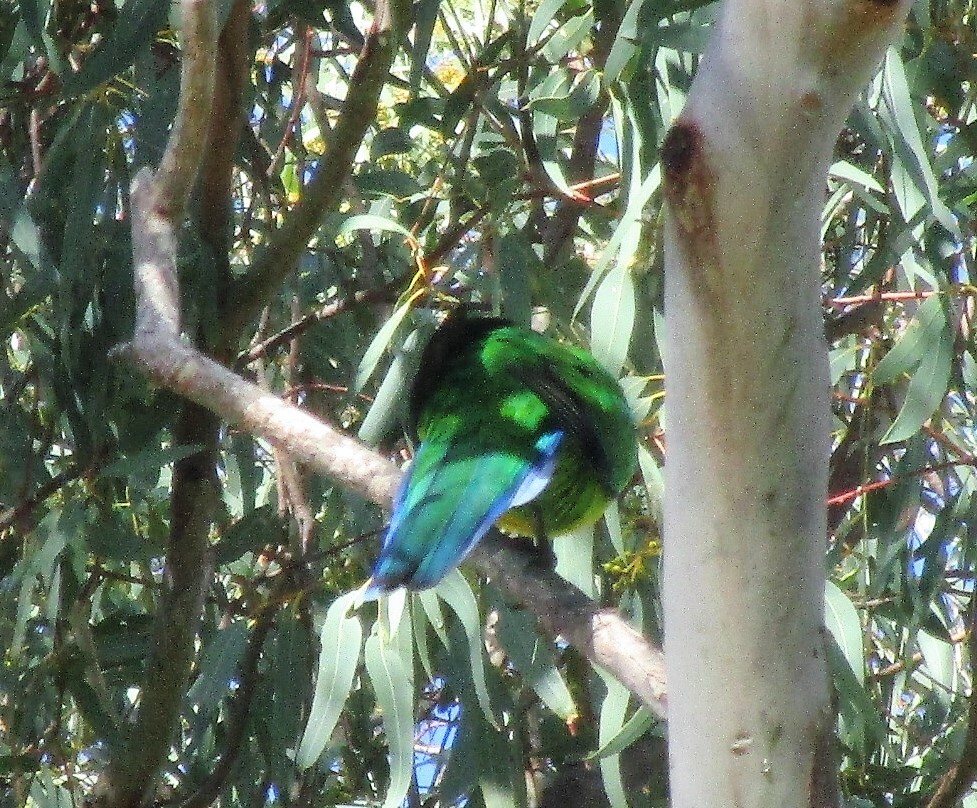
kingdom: Animalia
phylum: Chordata
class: Aves
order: Psittaciformes
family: Psittacidae
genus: Barnardius
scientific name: Barnardius zonarius
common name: Australian ringneck
